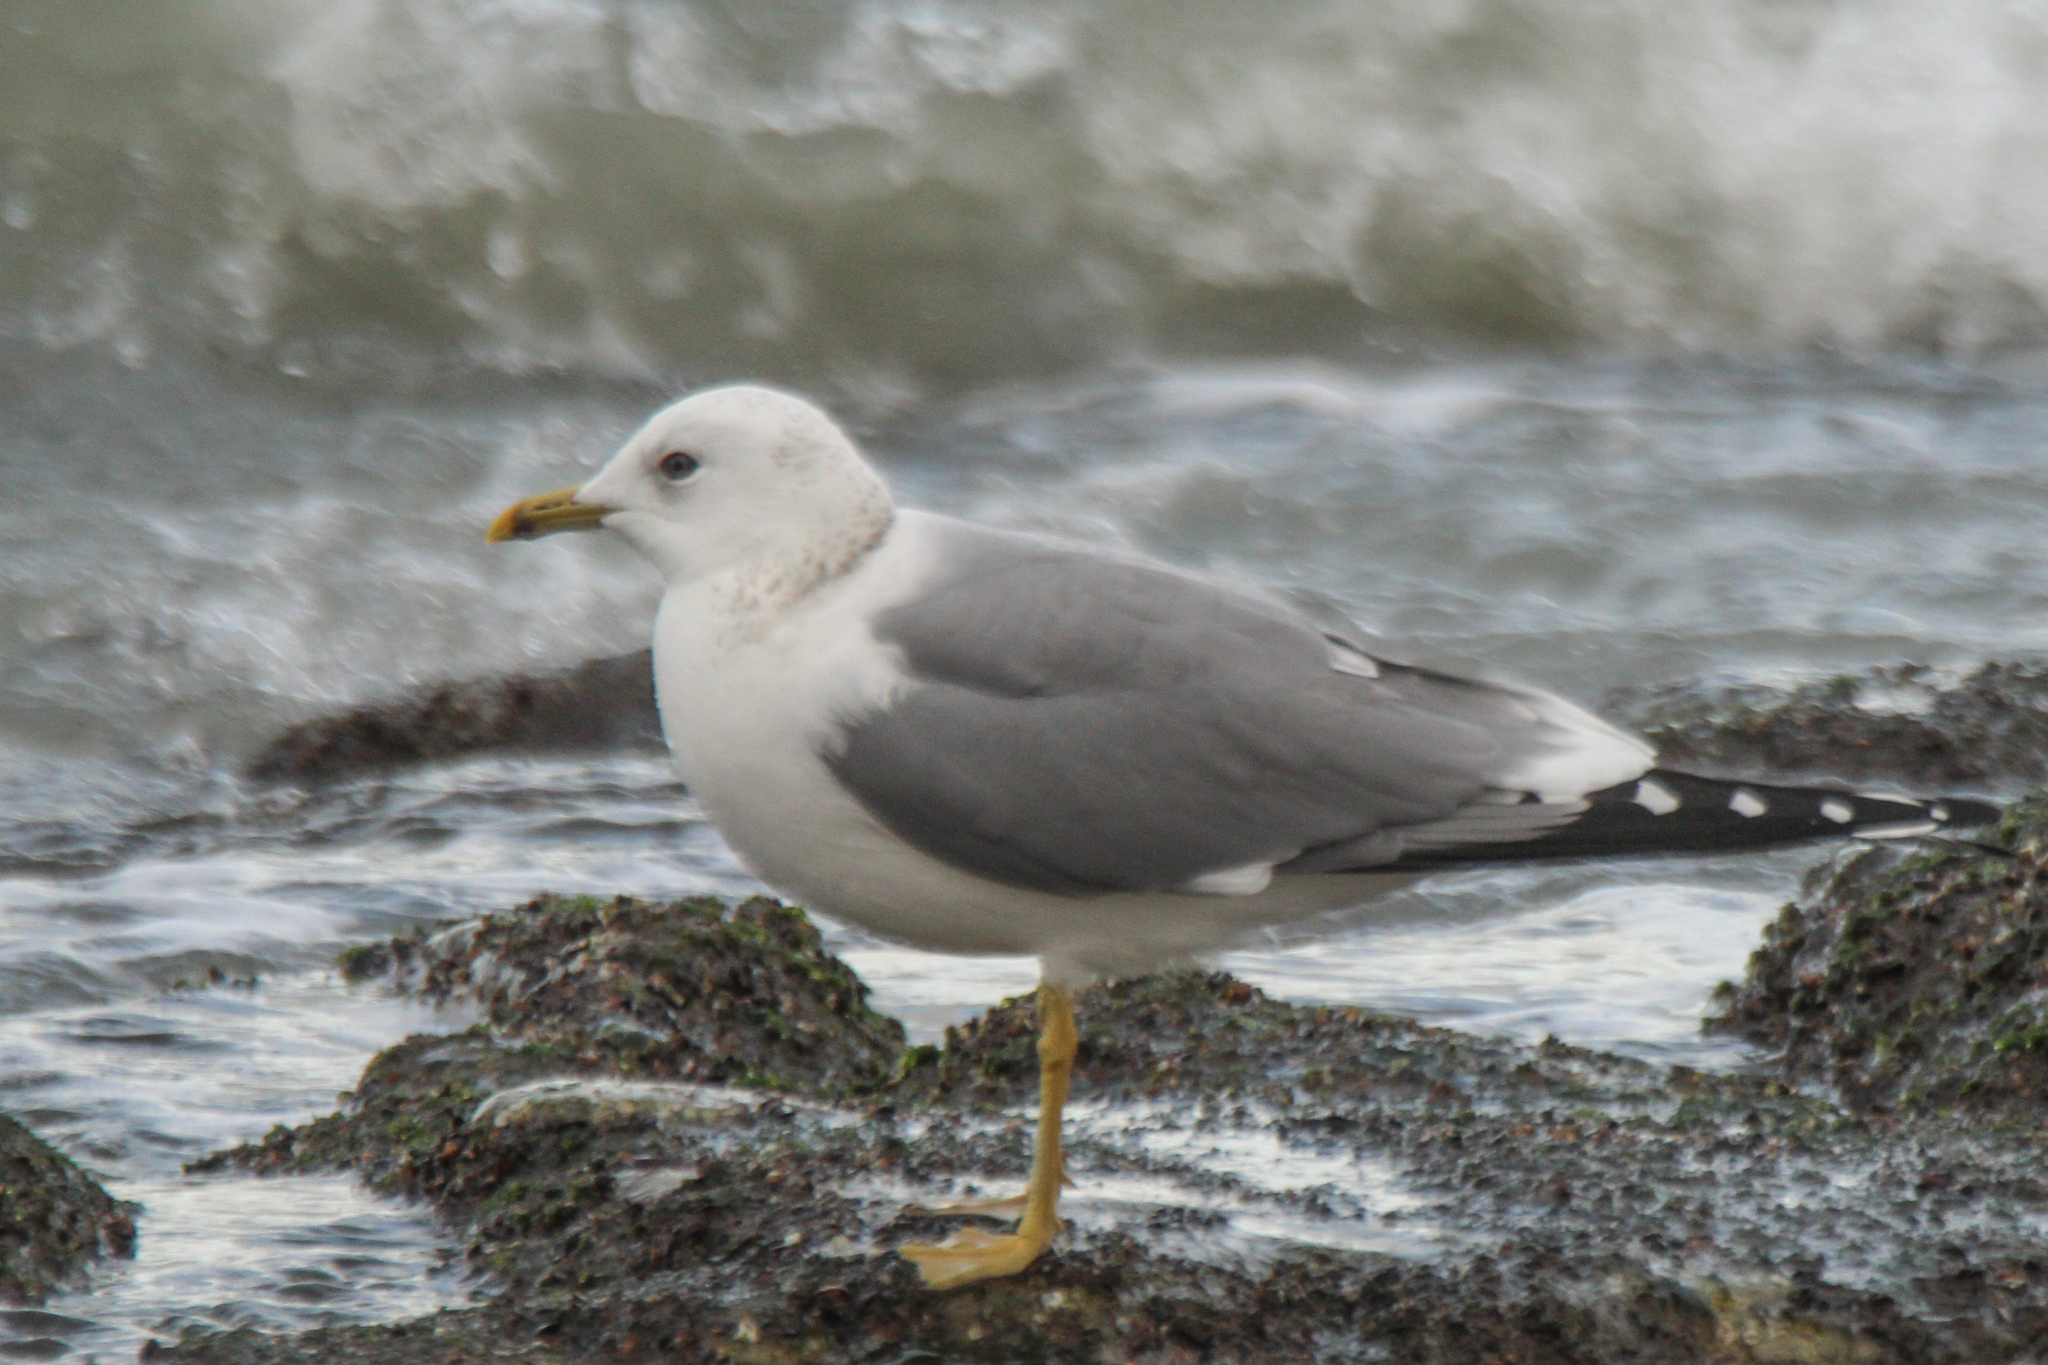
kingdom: Animalia
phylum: Chordata
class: Aves
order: Charadriiformes
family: Laridae
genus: Larus
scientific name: Larus canus
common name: Mew gull
